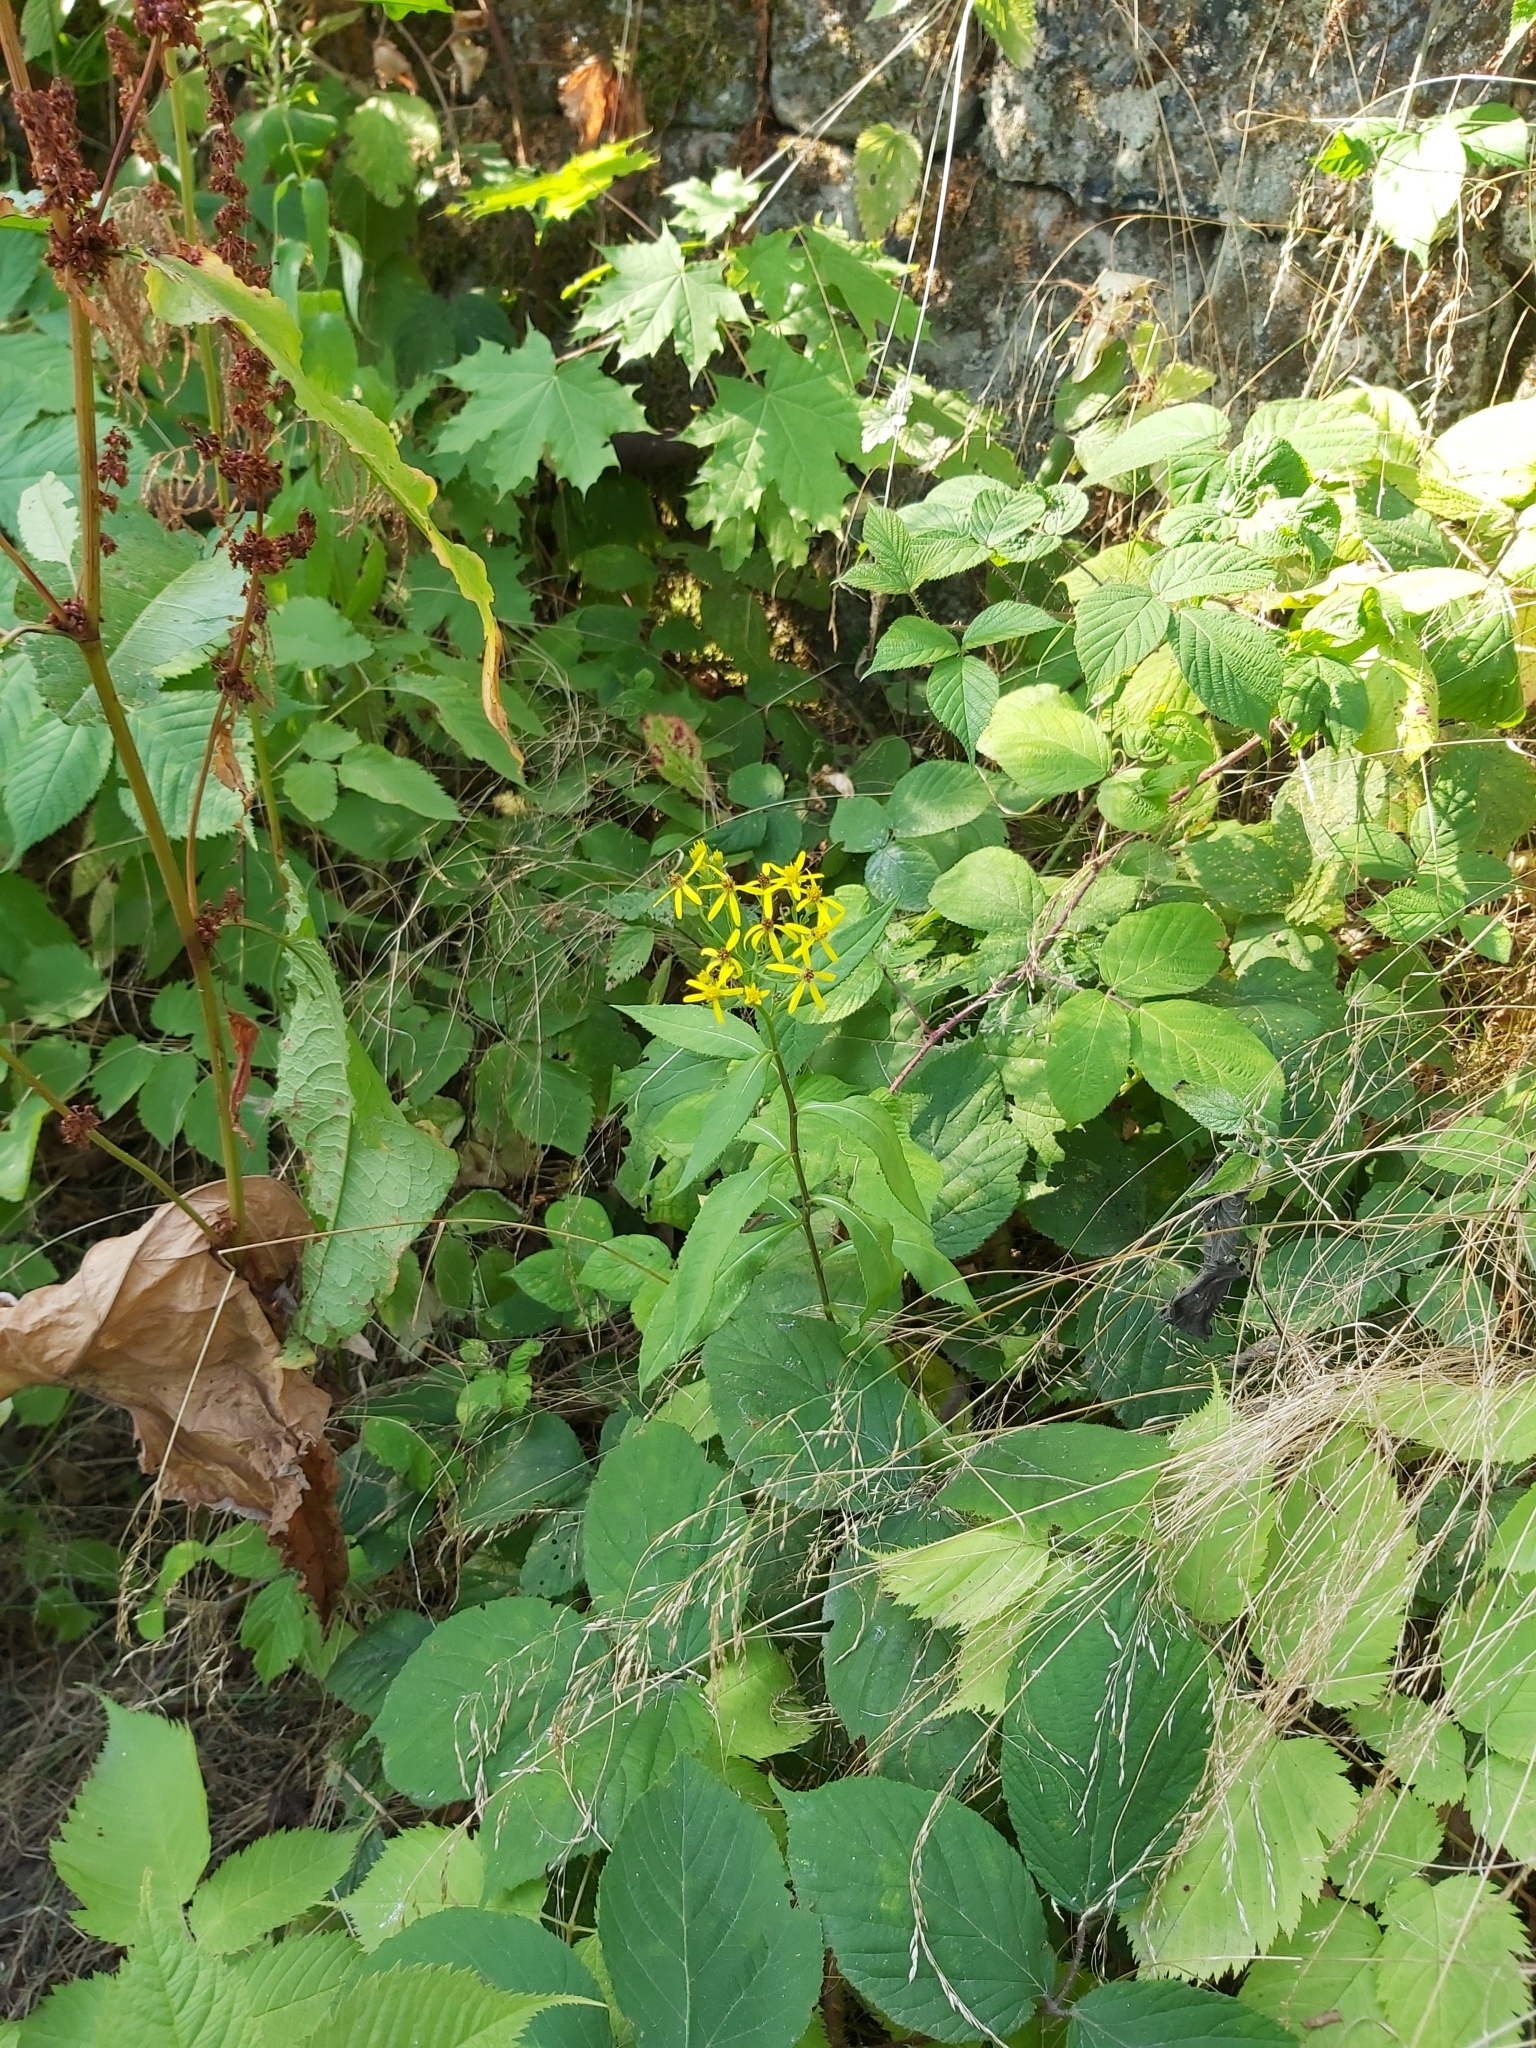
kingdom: Plantae
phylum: Tracheophyta
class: Magnoliopsida
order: Asterales
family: Asteraceae
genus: Senecio
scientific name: Senecio ovatus
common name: Wood ragwort
